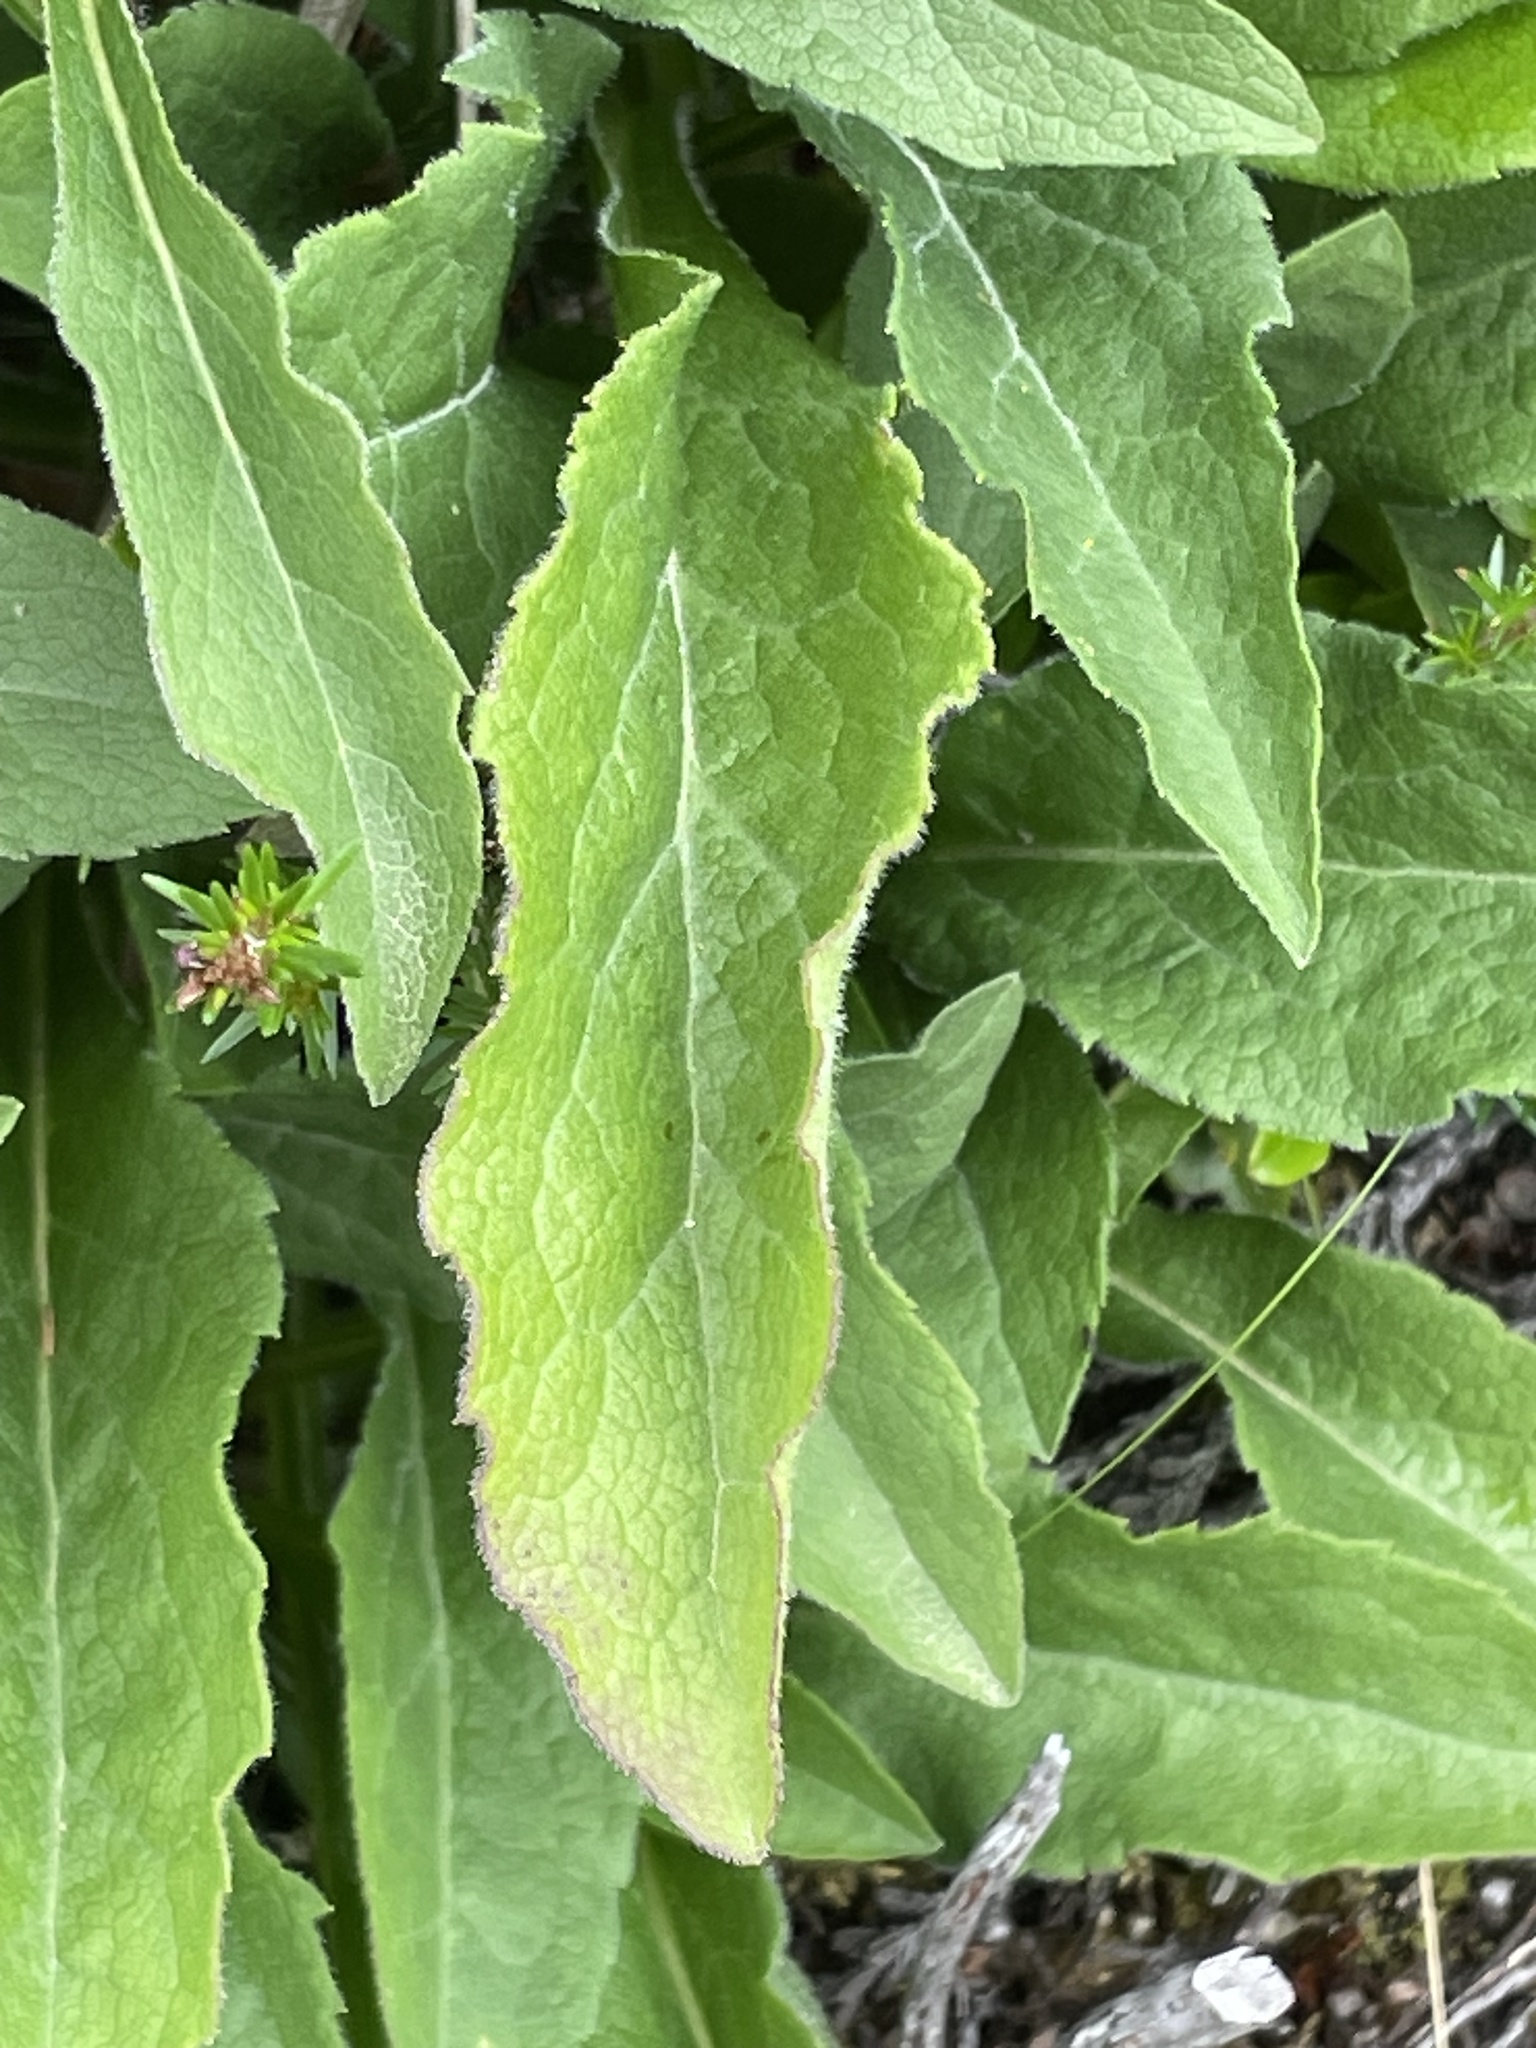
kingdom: Plantae
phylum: Tracheophyta
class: Magnoliopsida
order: Asterales
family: Asteraceae
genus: Solidago
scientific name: Solidago virgaurea
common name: Goldenrod
